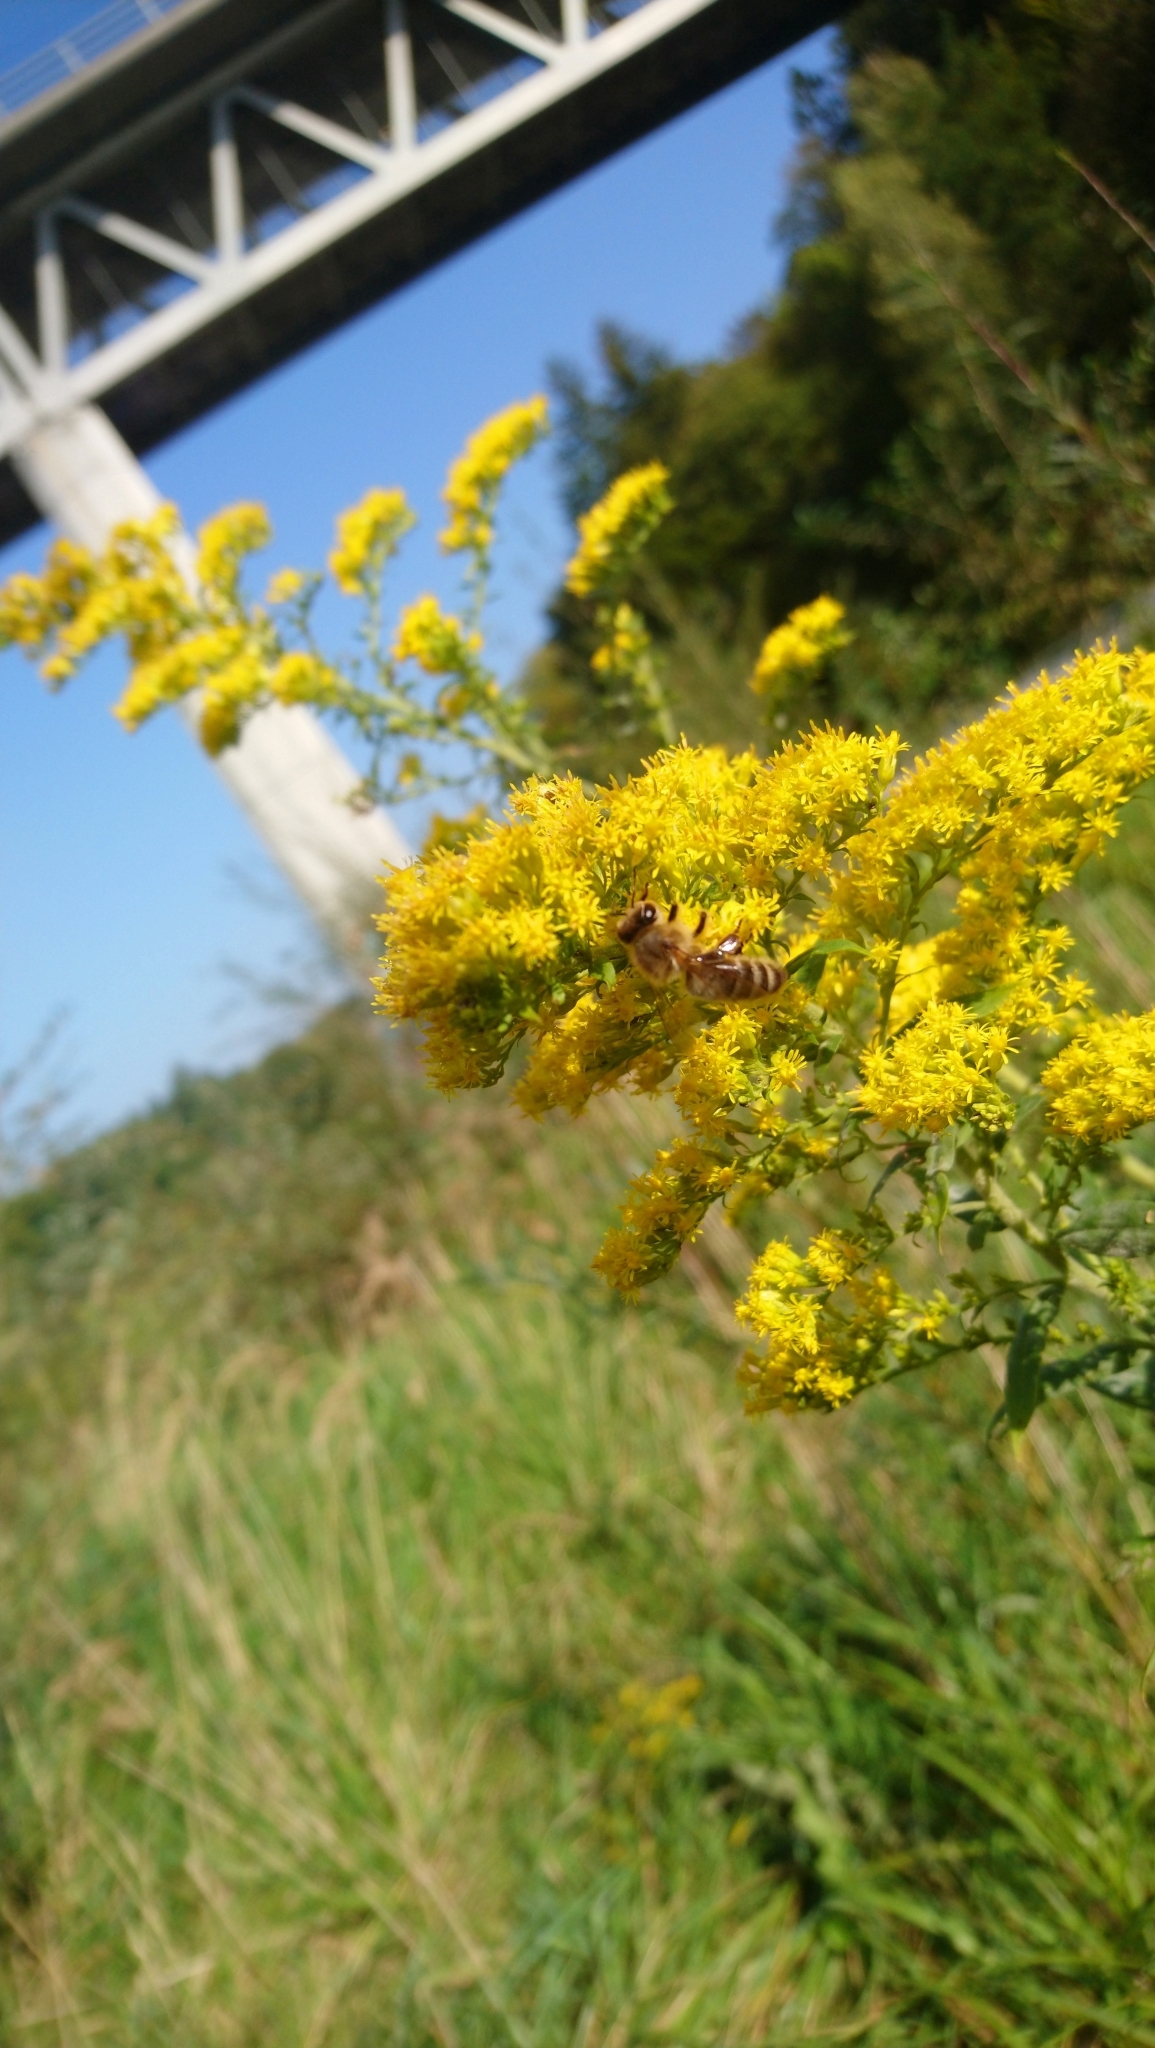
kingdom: Animalia
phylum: Arthropoda
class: Insecta
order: Hymenoptera
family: Apidae
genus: Apis
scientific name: Apis mellifera
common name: Honey bee
